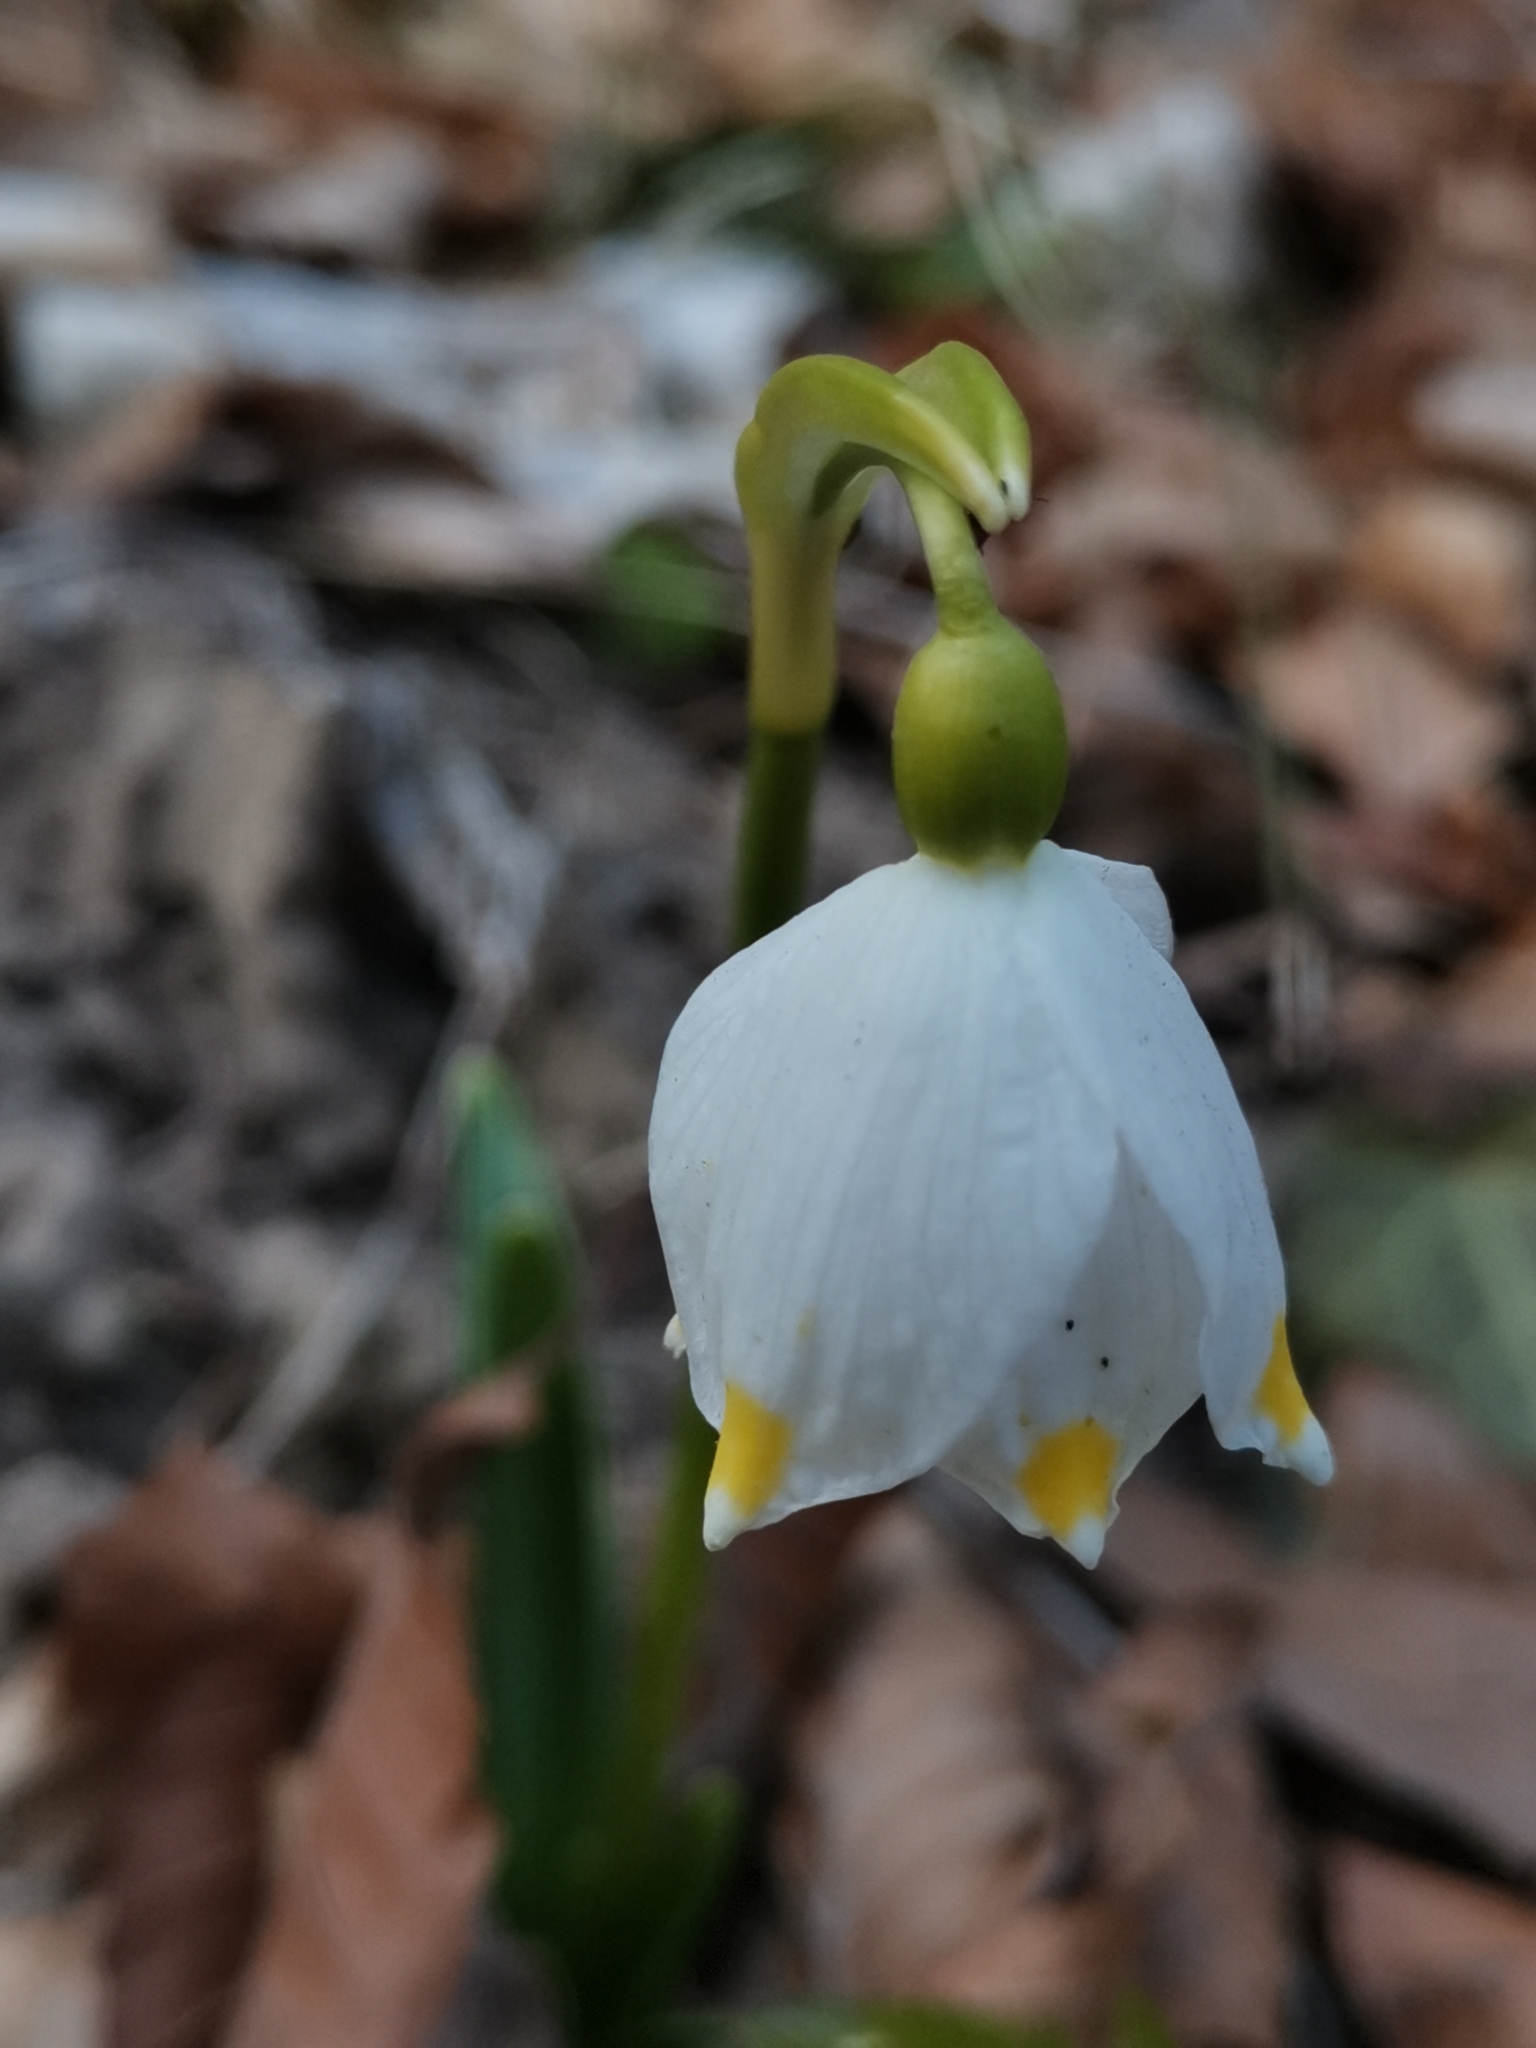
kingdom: Plantae
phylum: Tracheophyta
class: Liliopsida
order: Asparagales
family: Amaryllidaceae
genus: Leucojum
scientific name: Leucojum vernum
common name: Spring snowflake
